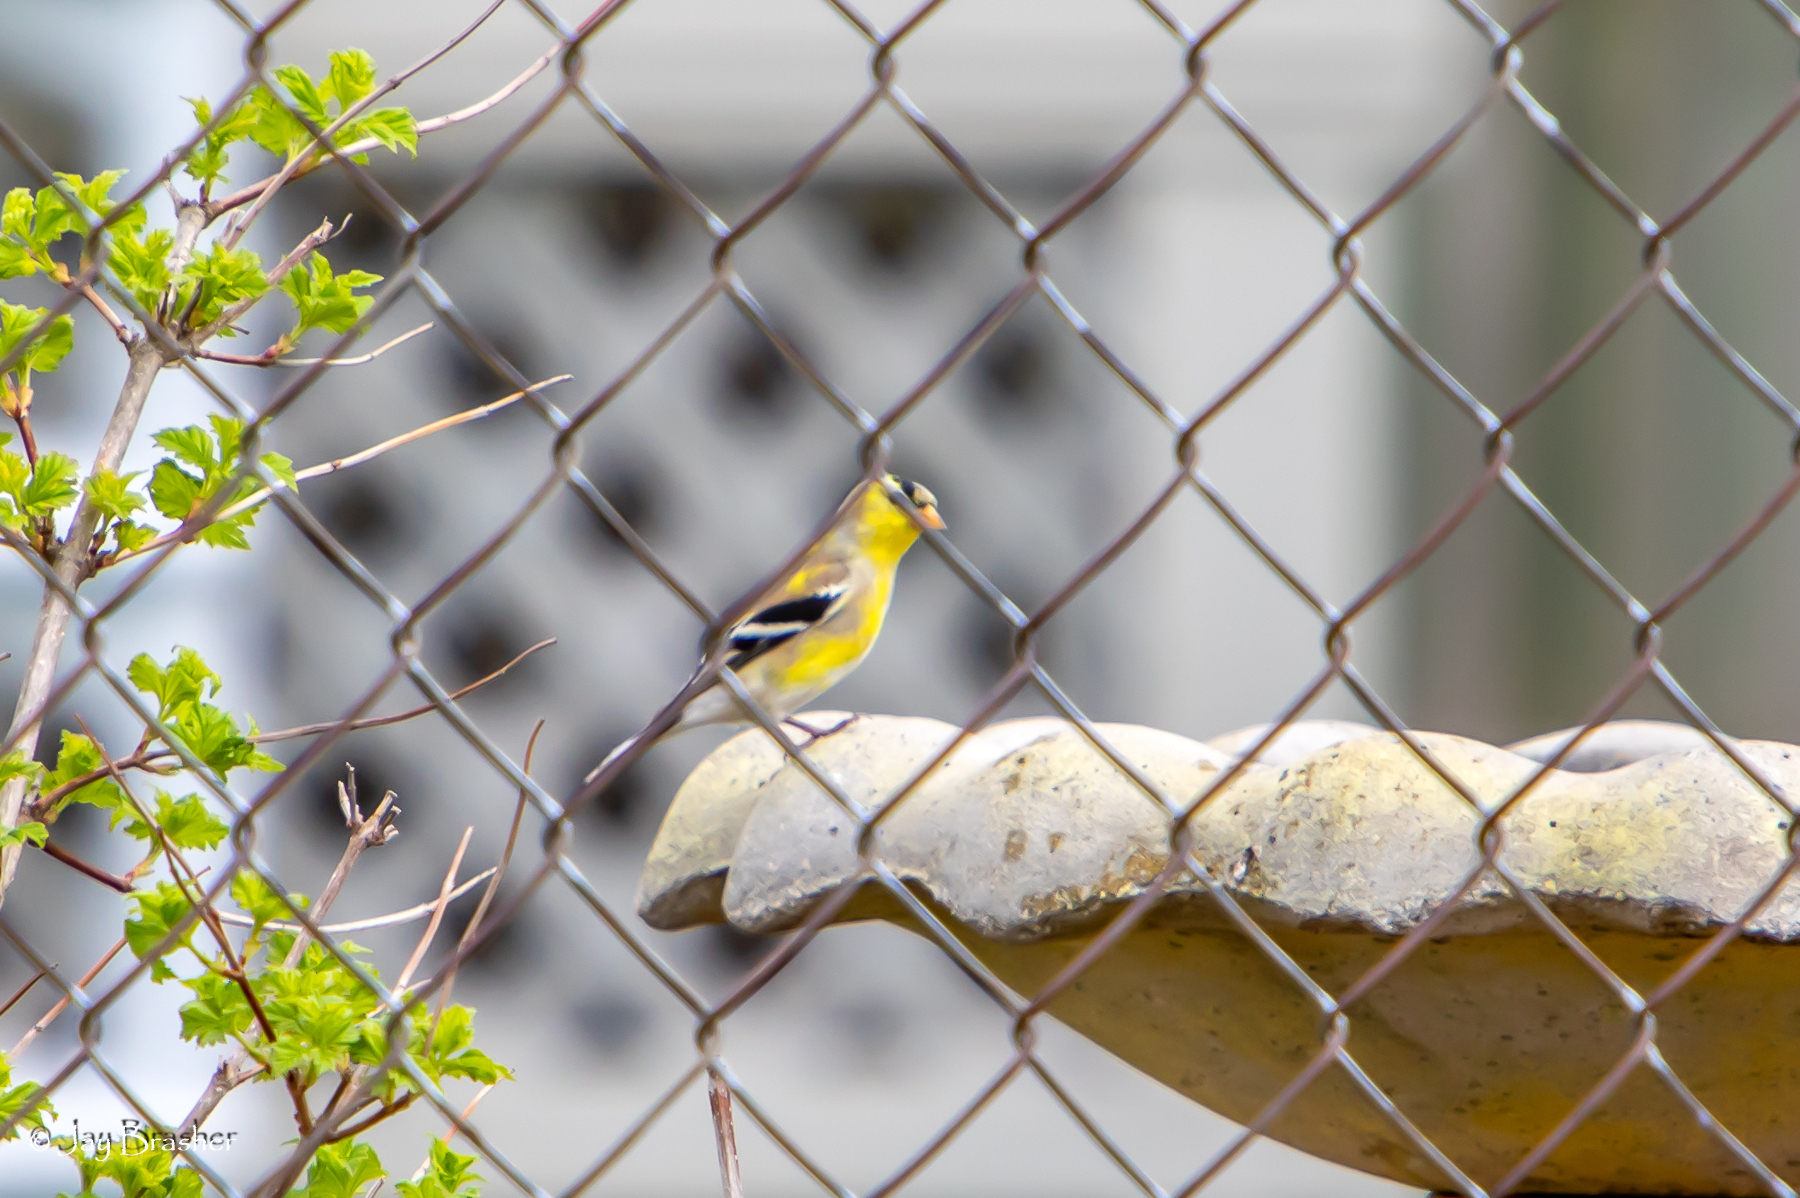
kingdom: Animalia
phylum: Chordata
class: Aves
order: Passeriformes
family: Fringillidae
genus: Spinus
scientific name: Spinus tristis
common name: American goldfinch
